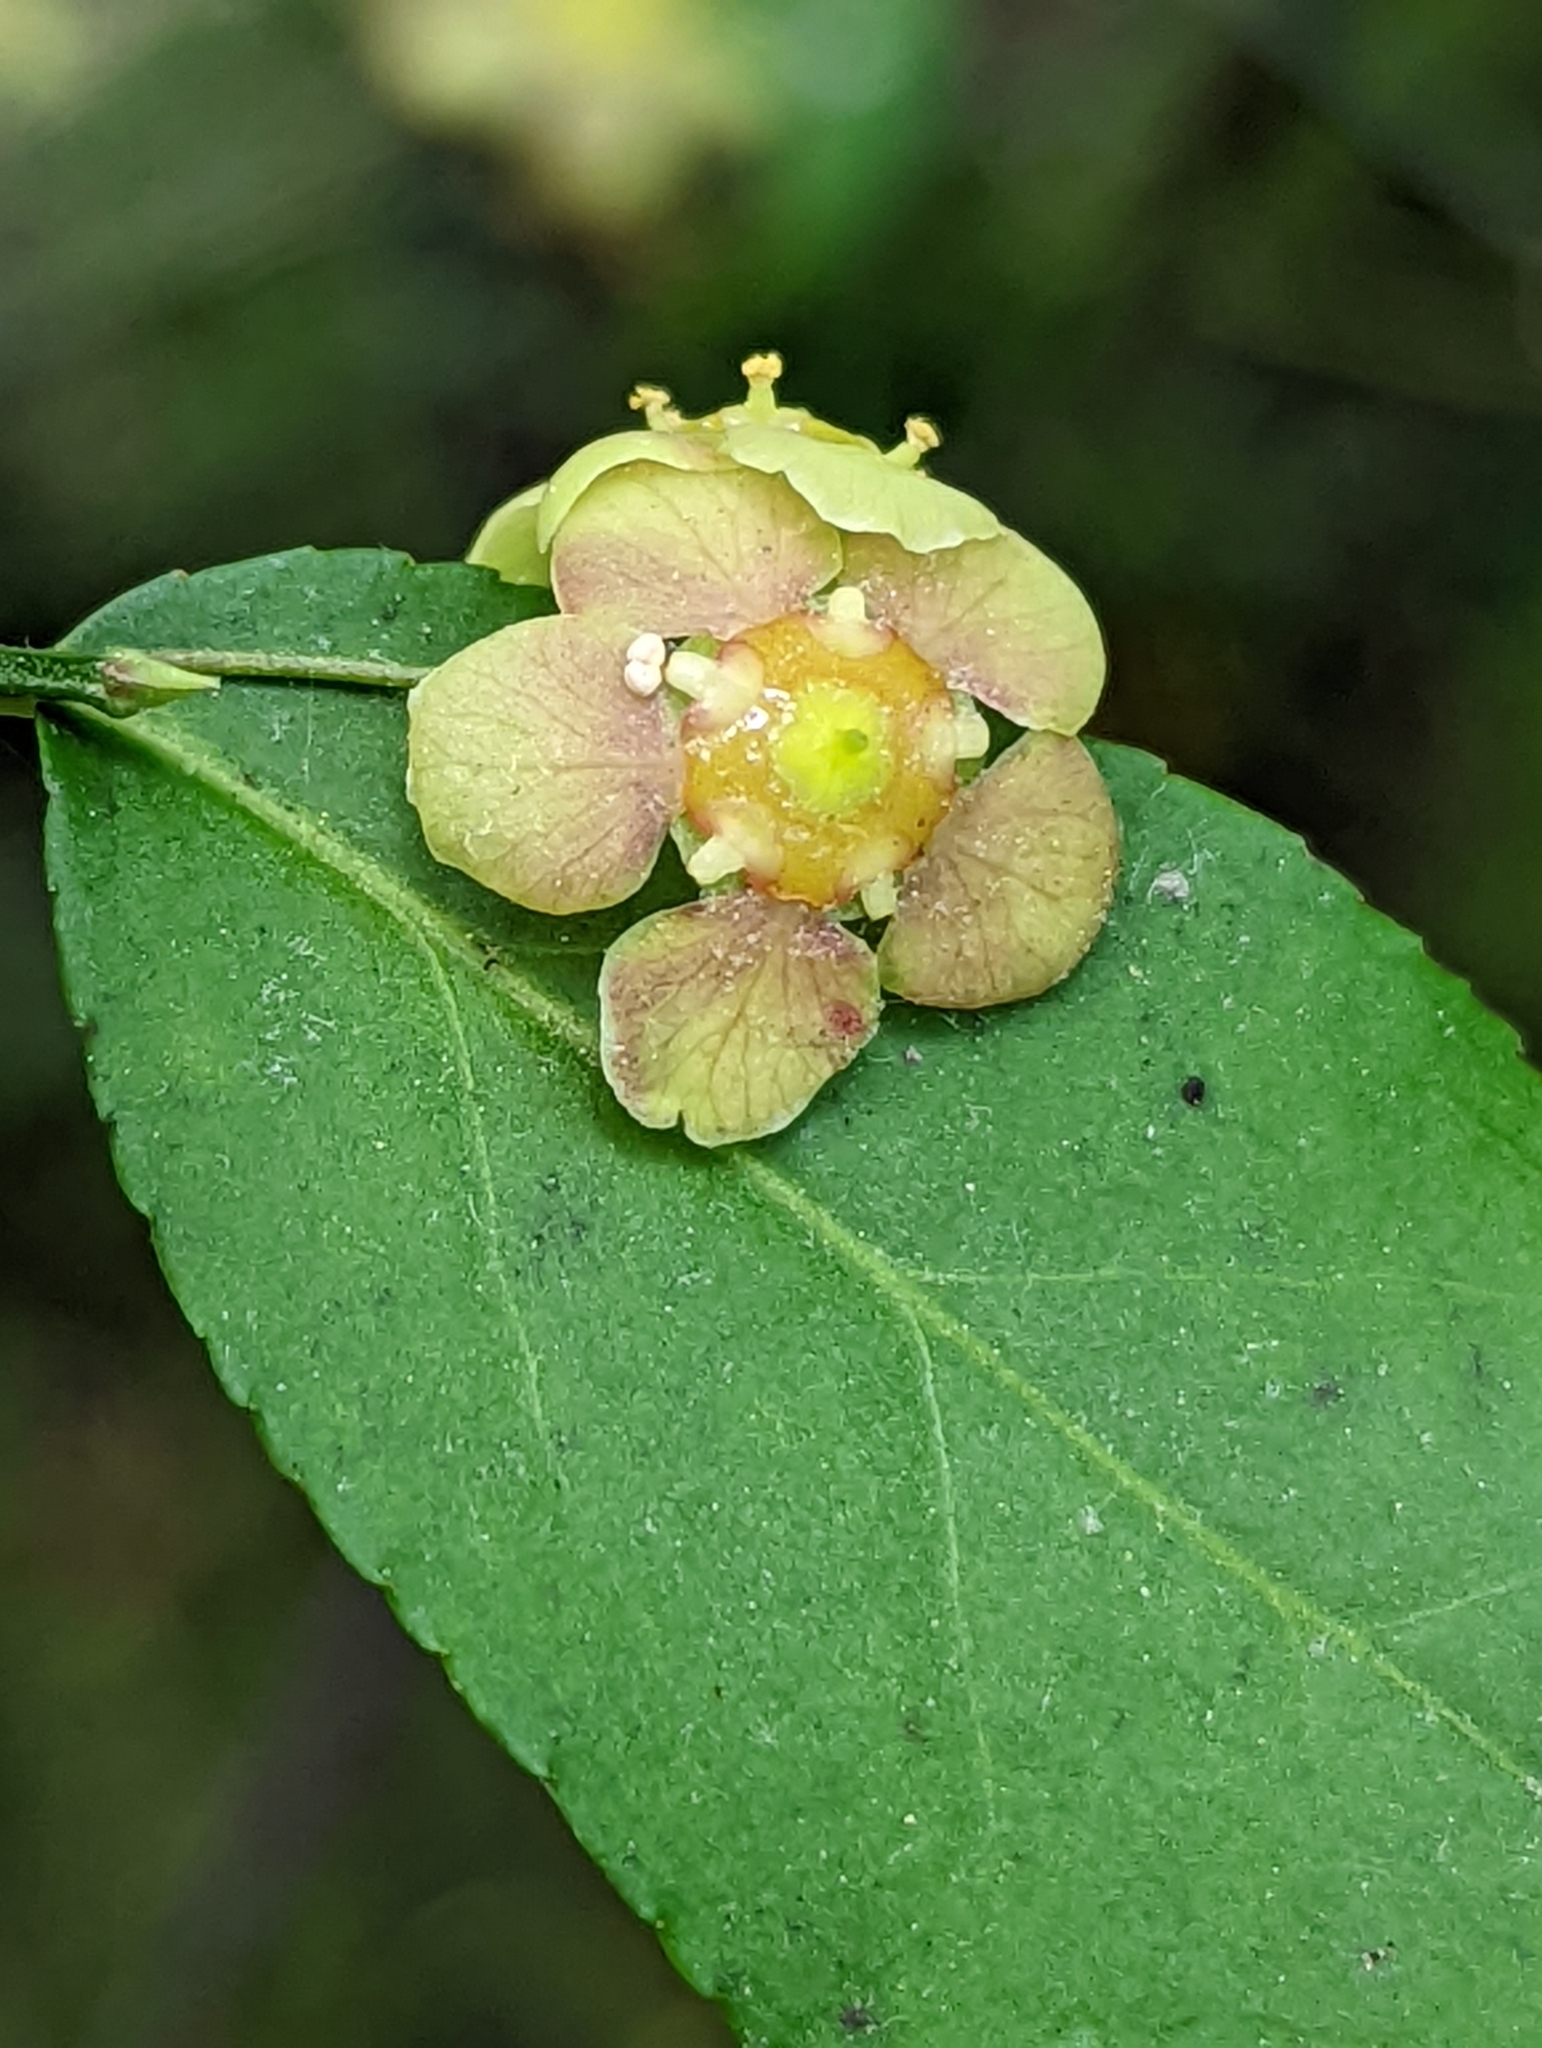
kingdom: Plantae
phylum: Tracheophyta
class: Magnoliopsida
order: Celastrales
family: Celastraceae
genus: Euonymus
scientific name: Euonymus americanus
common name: Bursting-heart
